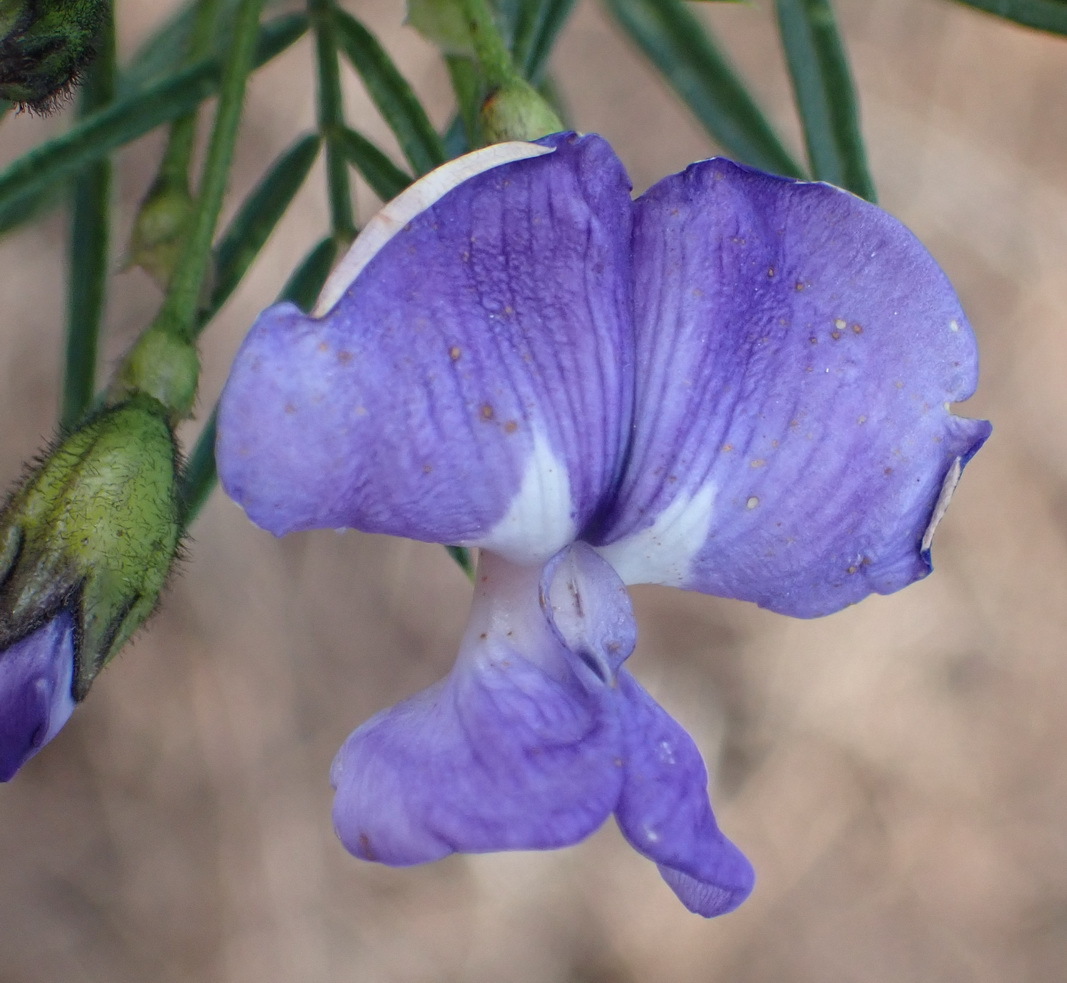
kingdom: Plantae
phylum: Tracheophyta
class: Magnoliopsida
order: Fabales
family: Fabaceae
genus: Psoralea
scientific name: Psoralea arborea
